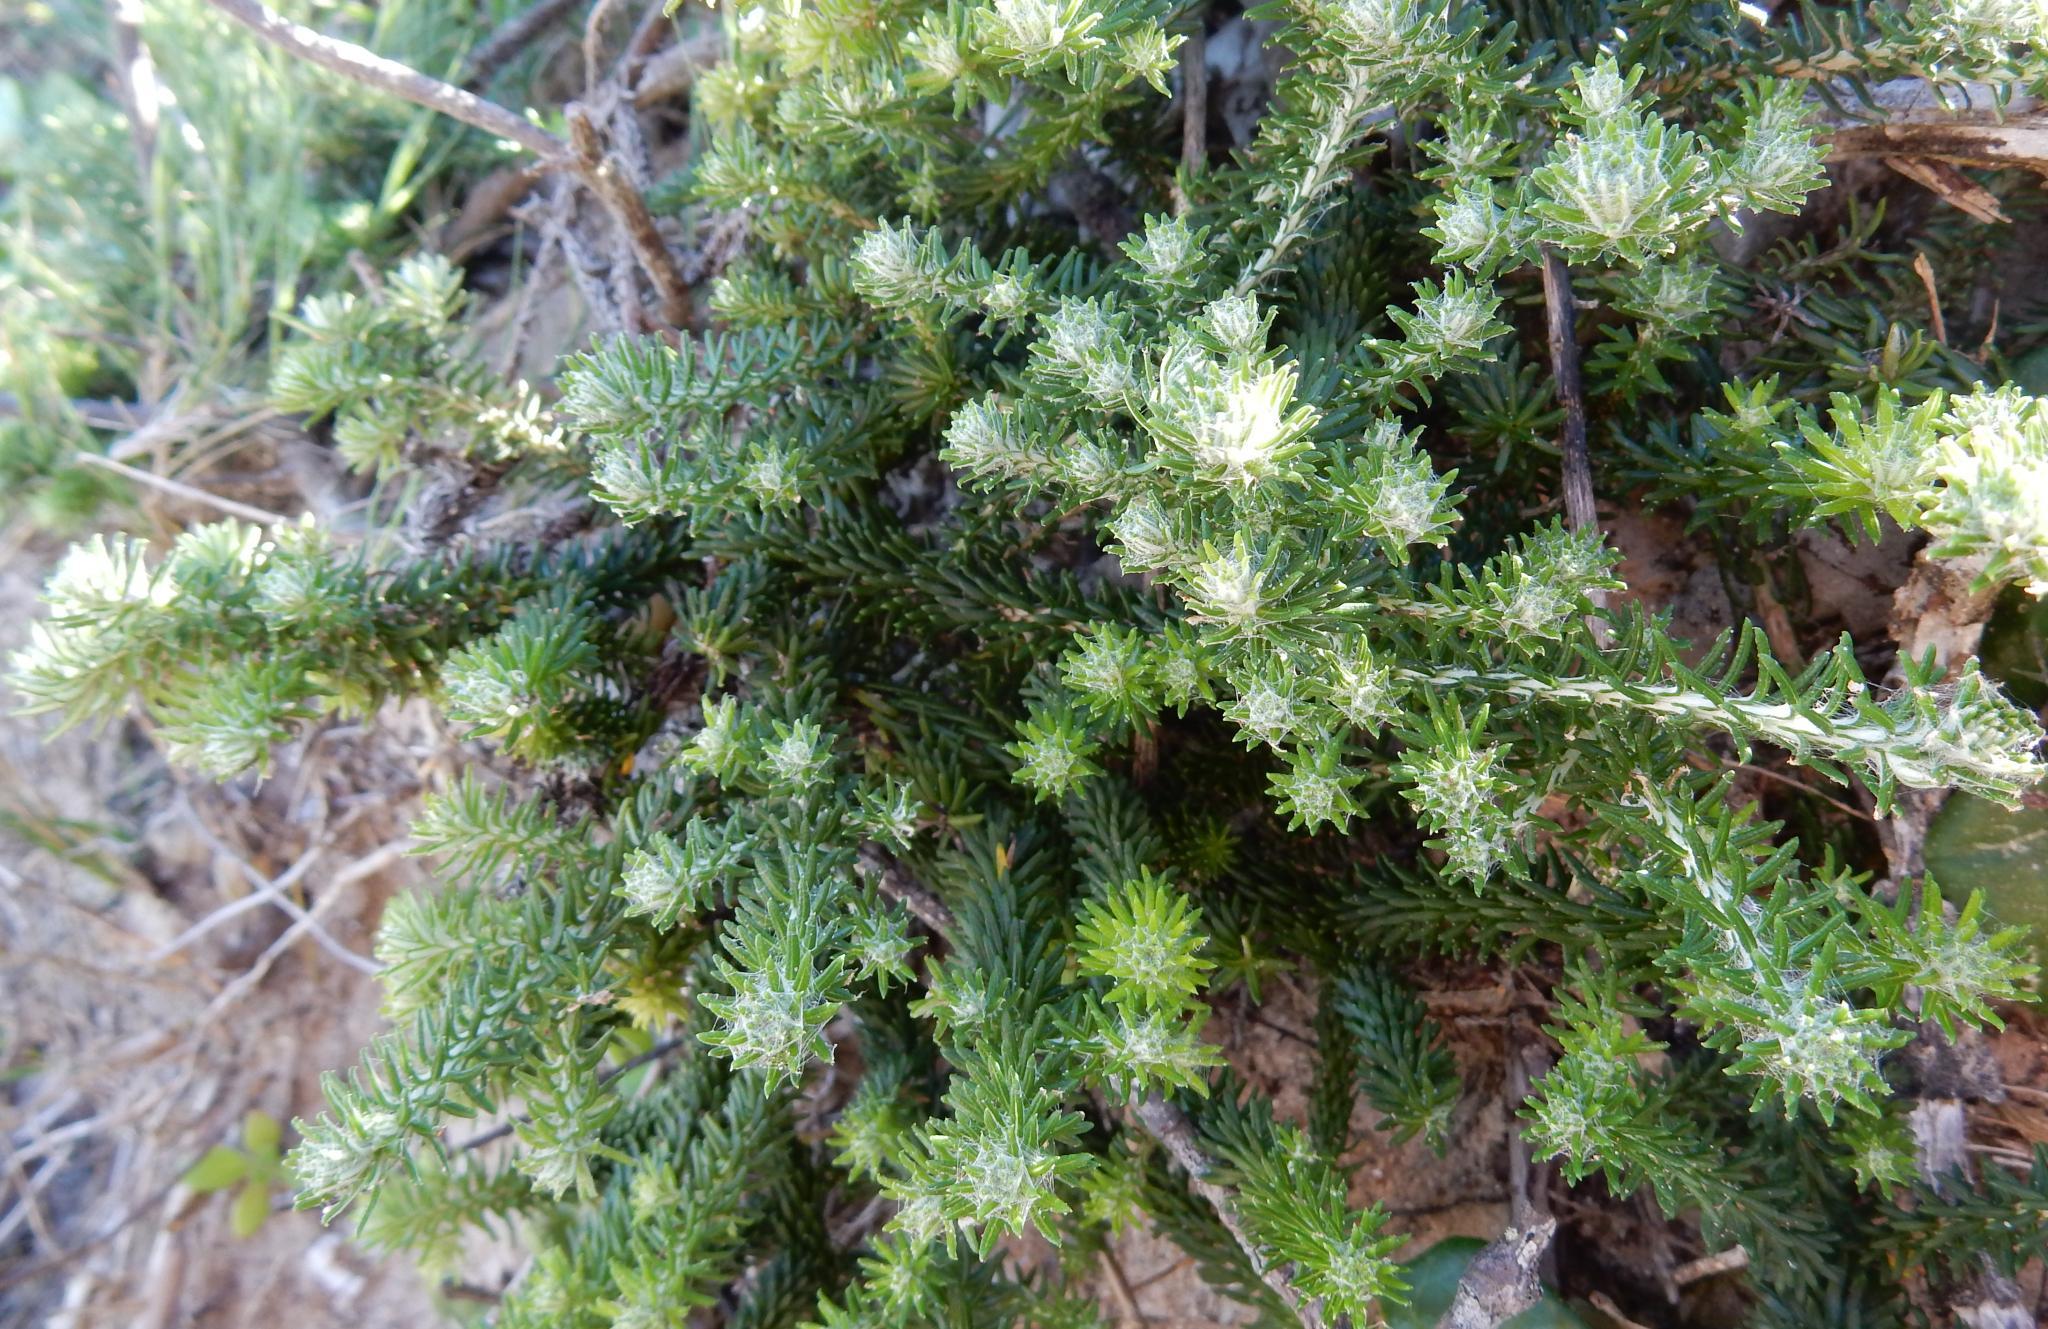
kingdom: Plantae
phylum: Tracheophyta
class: Magnoliopsida
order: Asterales
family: Asteraceae
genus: Helichrysum
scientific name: Helichrysum teretifolium
